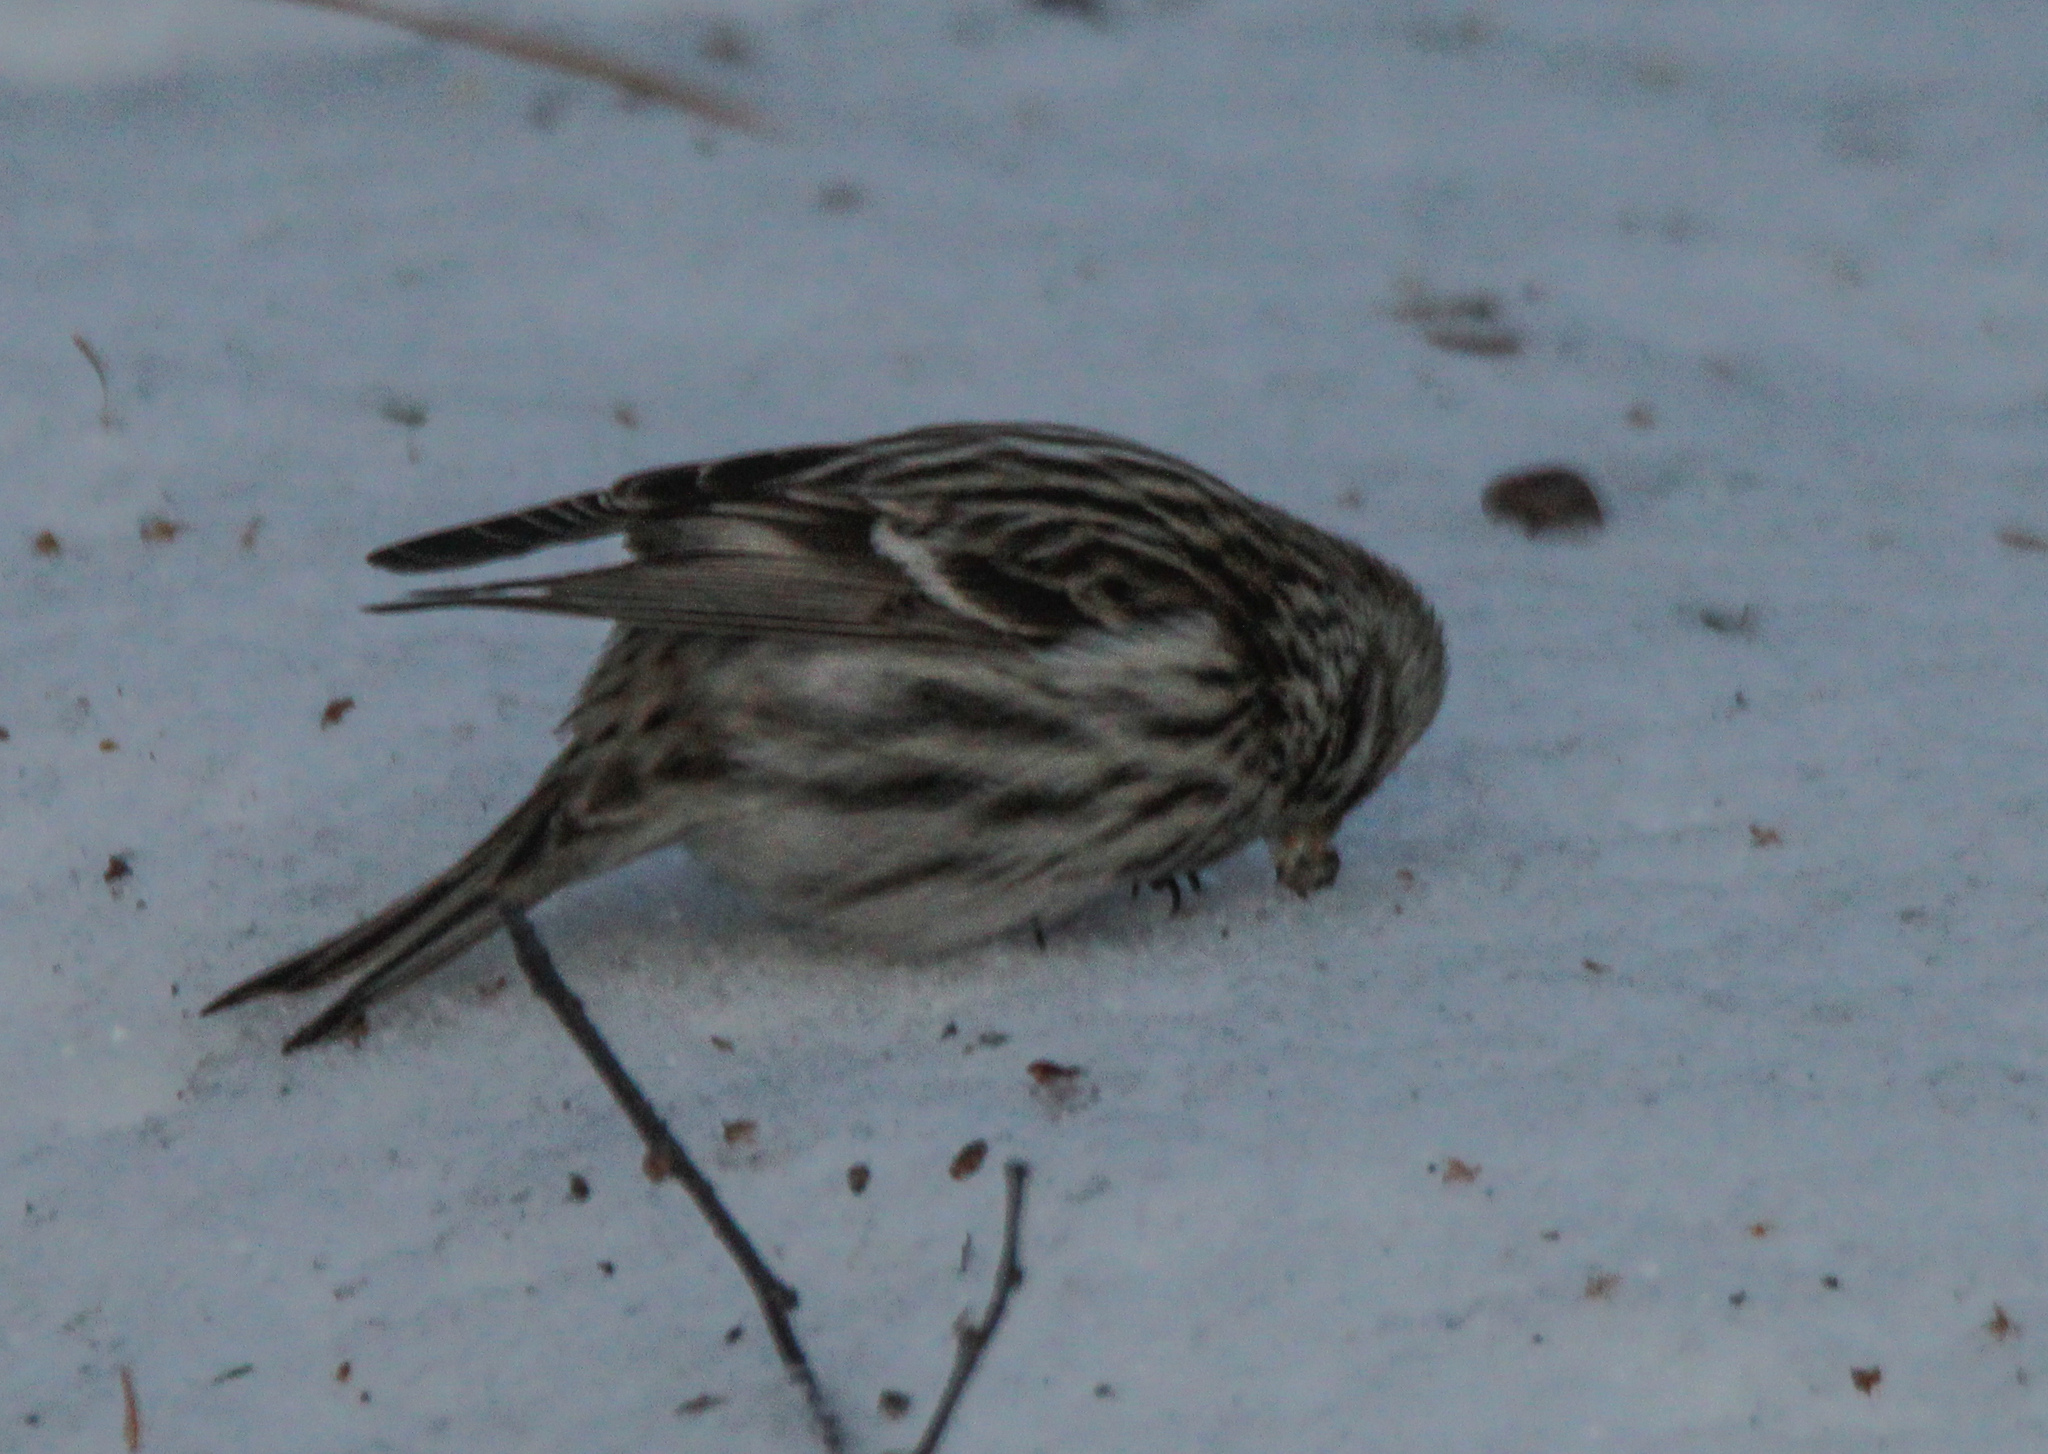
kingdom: Animalia
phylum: Chordata
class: Aves
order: Passeriformes
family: Fringillidae
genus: Acanthis
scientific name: Acanthis flammea
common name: Common redpoll
